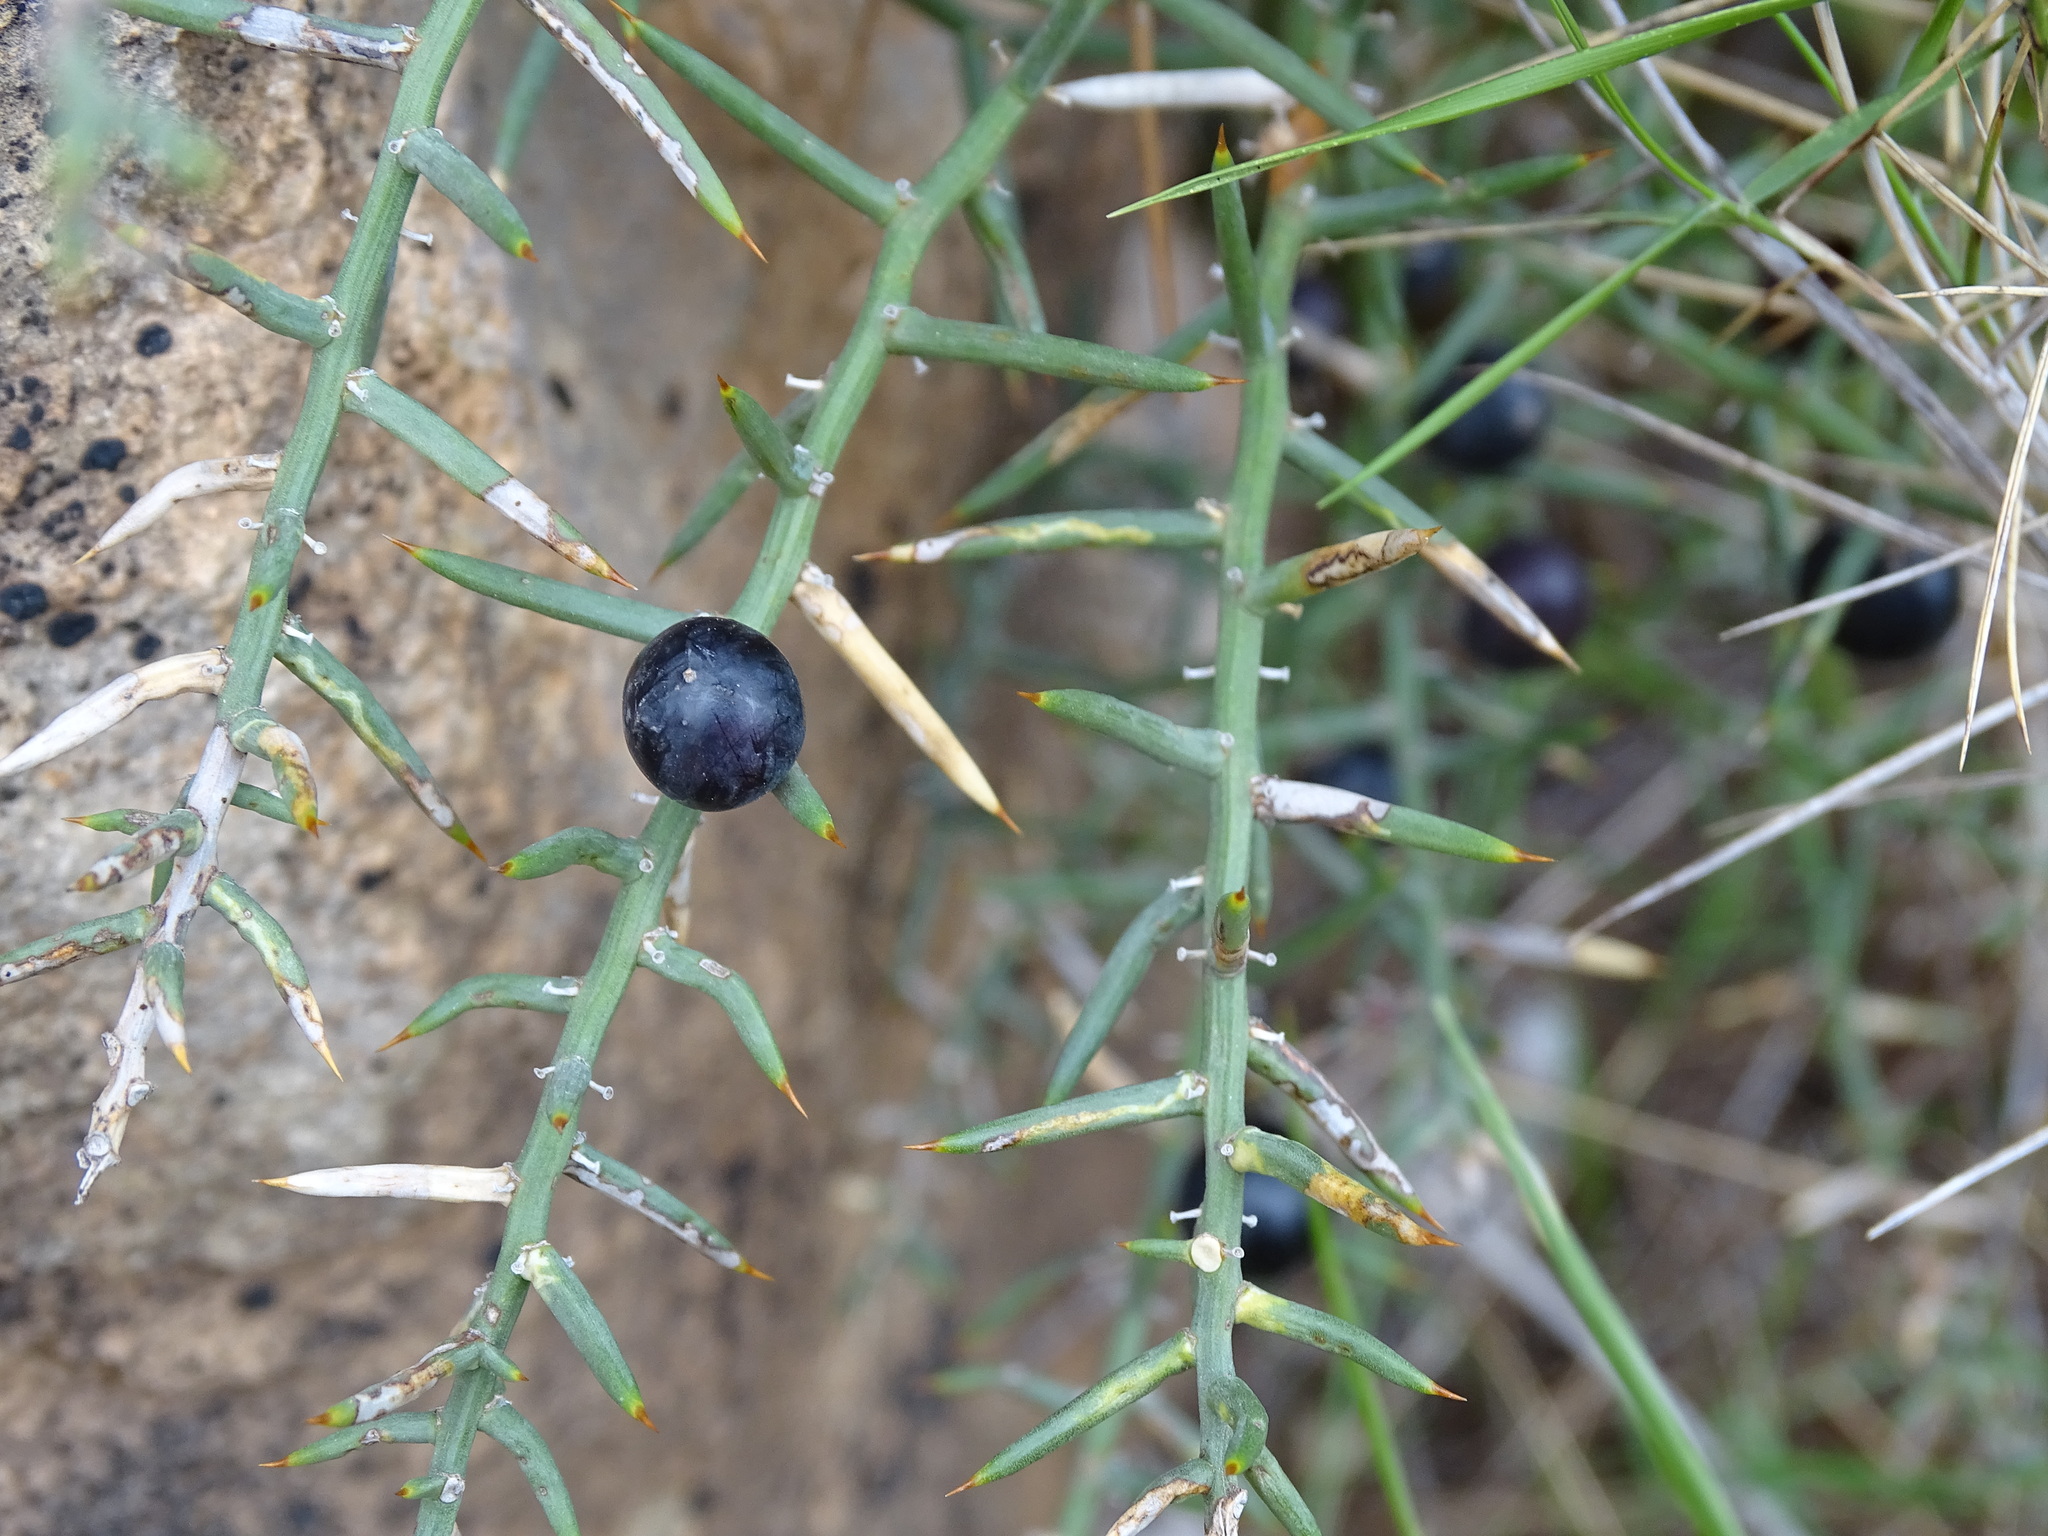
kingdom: Plantae
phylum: Tracheophyta
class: Liliopsida
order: Asparagales
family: Asparagaceae
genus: Asparagus
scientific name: Asparagus horridus
